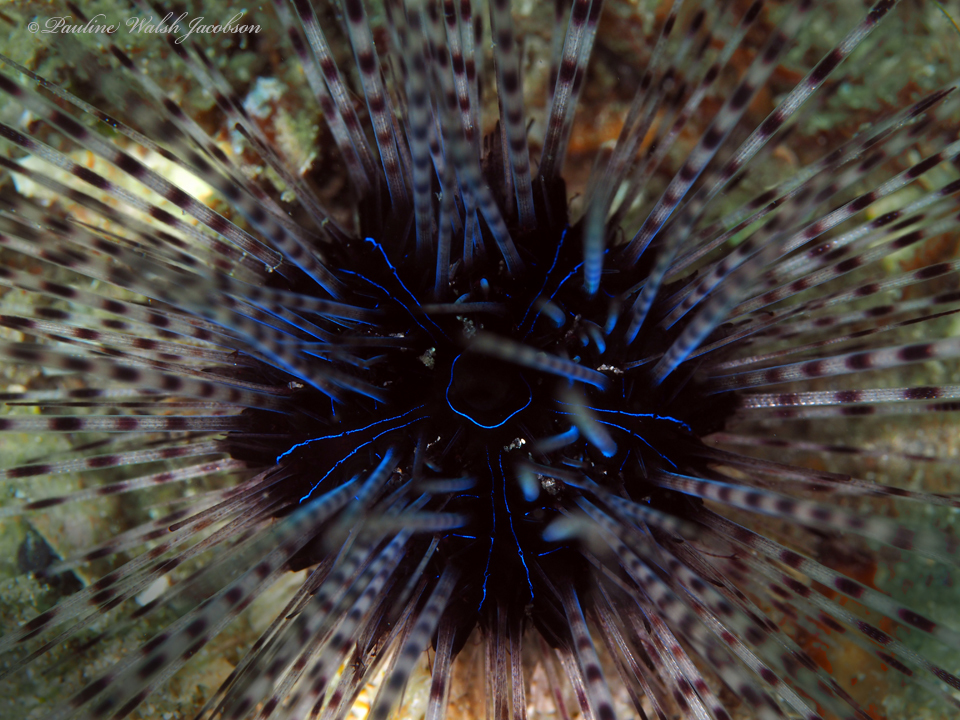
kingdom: Animalia
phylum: Echinodermata
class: Echinoidea
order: Diadematoida
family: Diadematidae
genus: Diadema
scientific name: Diadema antillarum
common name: Spiny urchin
